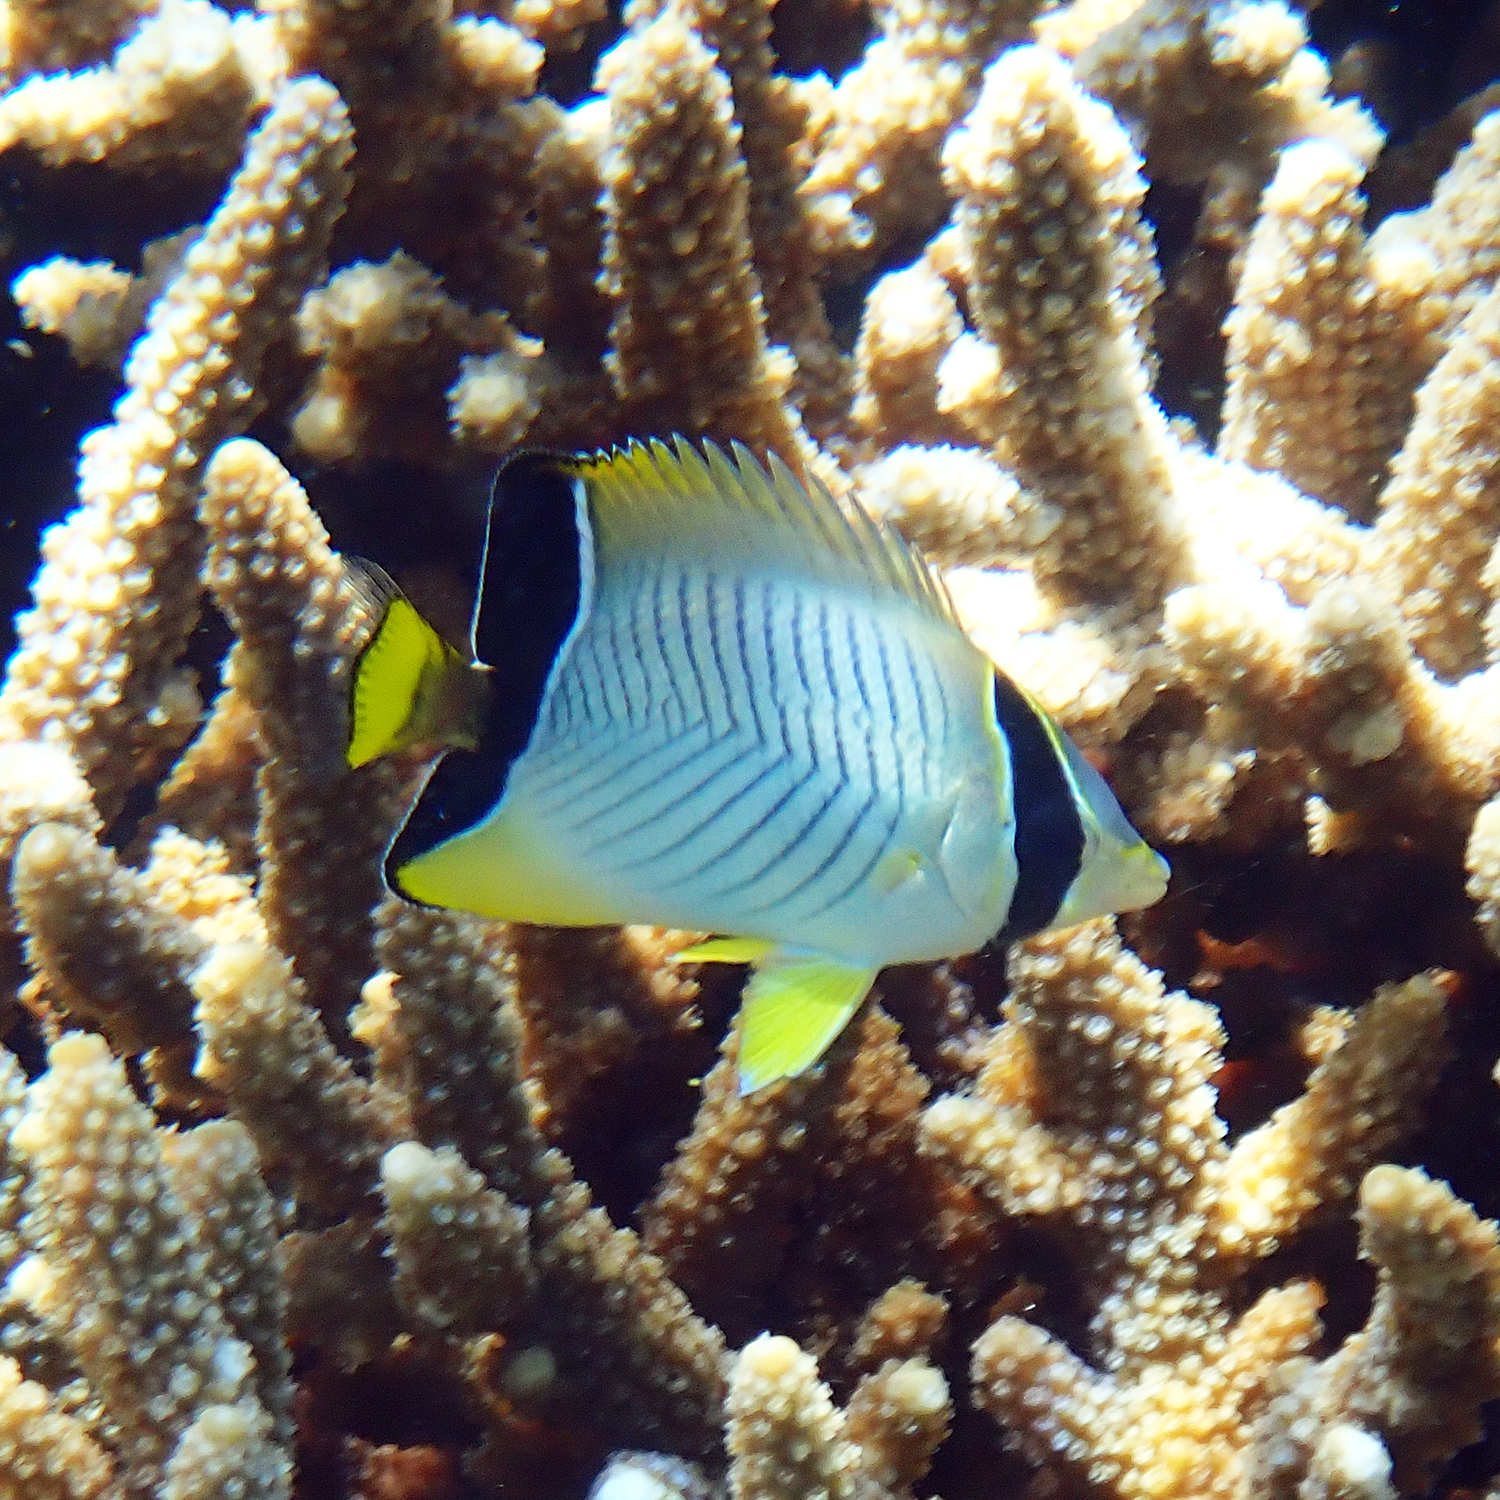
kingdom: Animalia
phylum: Chordata
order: Perciformes
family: Chaetodontidae
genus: Chaetodon
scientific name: Chaetodon trifascialis
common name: Chevroned butterflyfish
